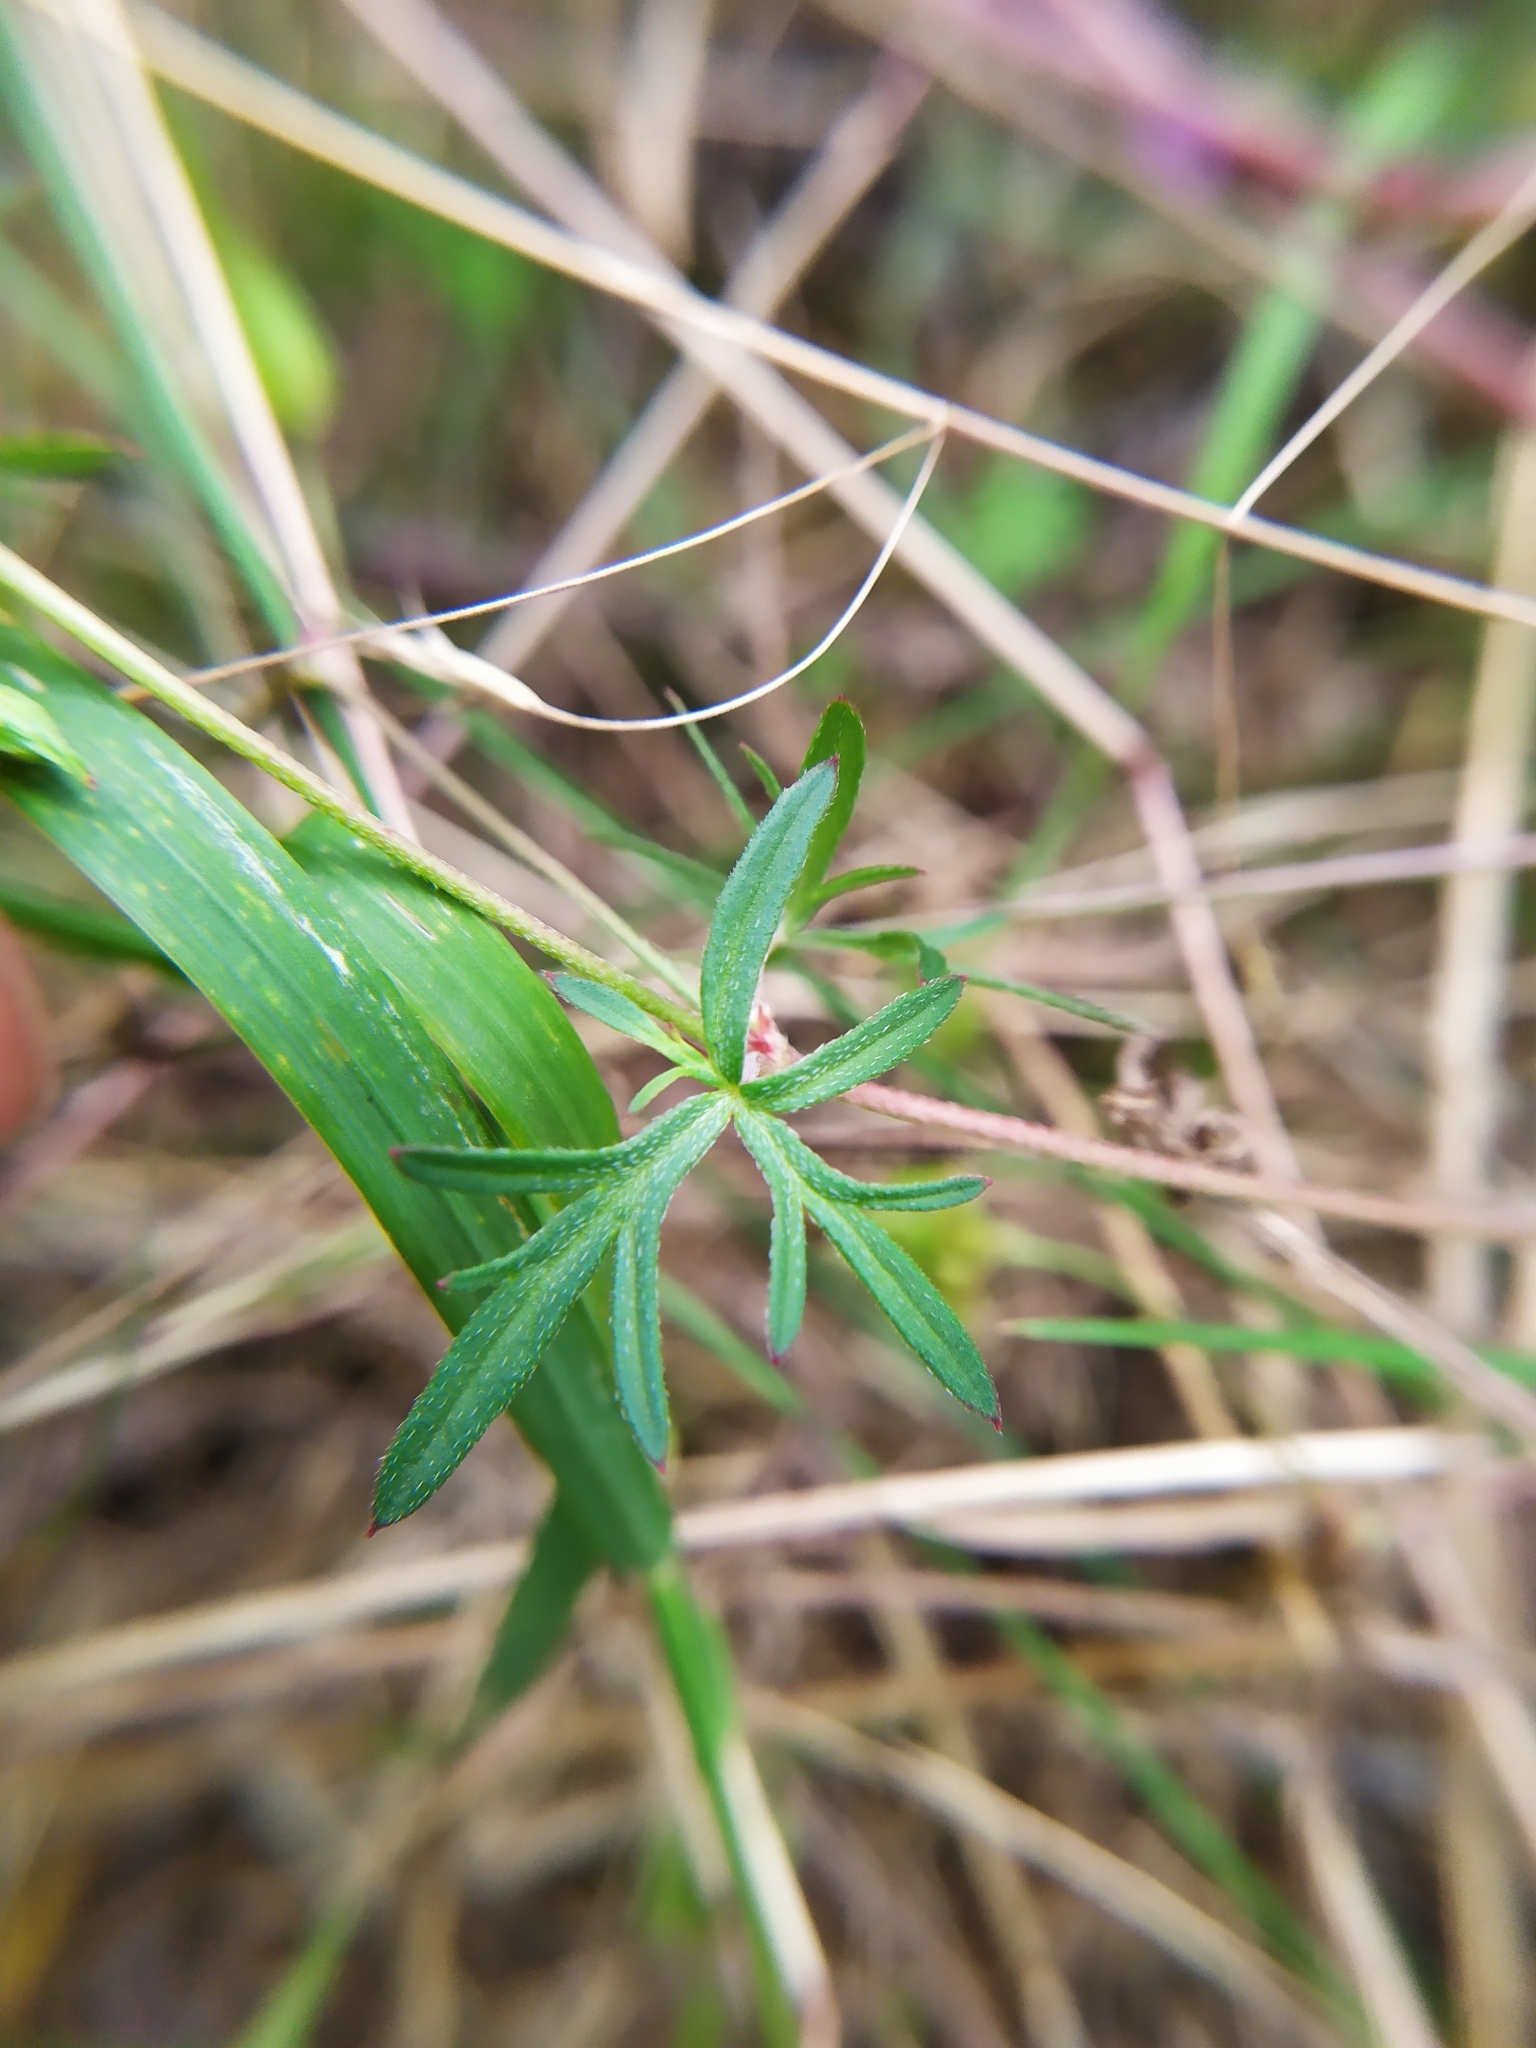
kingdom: Plantae
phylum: Tracheophyta
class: Magnoliopsida
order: Geraniales
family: Geraniaceae
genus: Geranium
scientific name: Geranium columbinum
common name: Long-stalked crane's-bill
